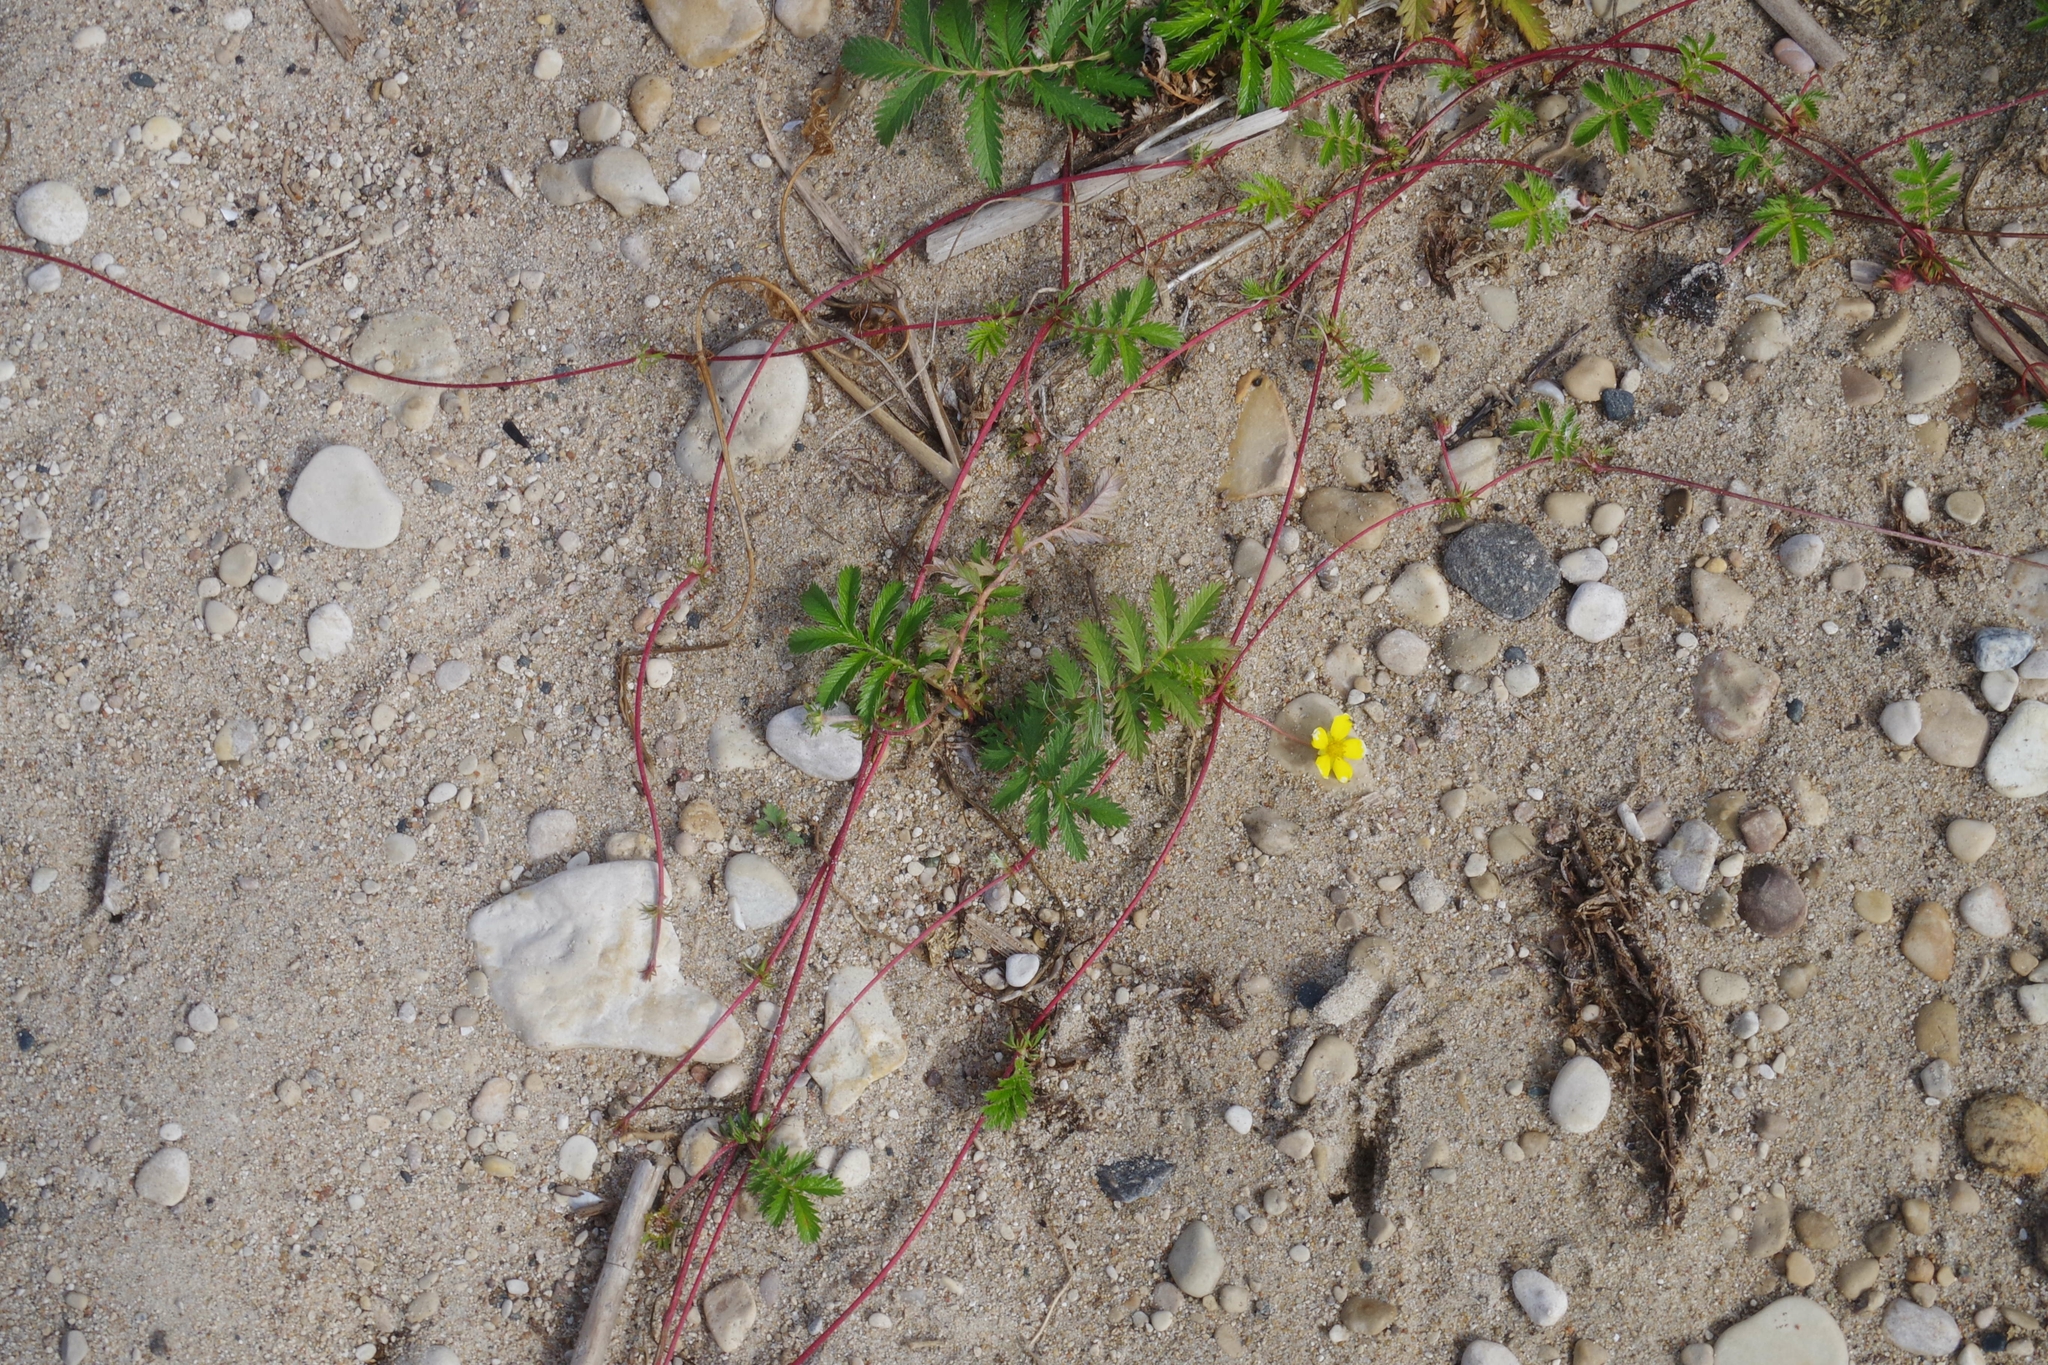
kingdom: Plantae
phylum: Tracheophyta
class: Magnoliopsida
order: Rosales
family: Rosaceae
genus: Argentina
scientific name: Argentina anserina
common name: Common silverweed
